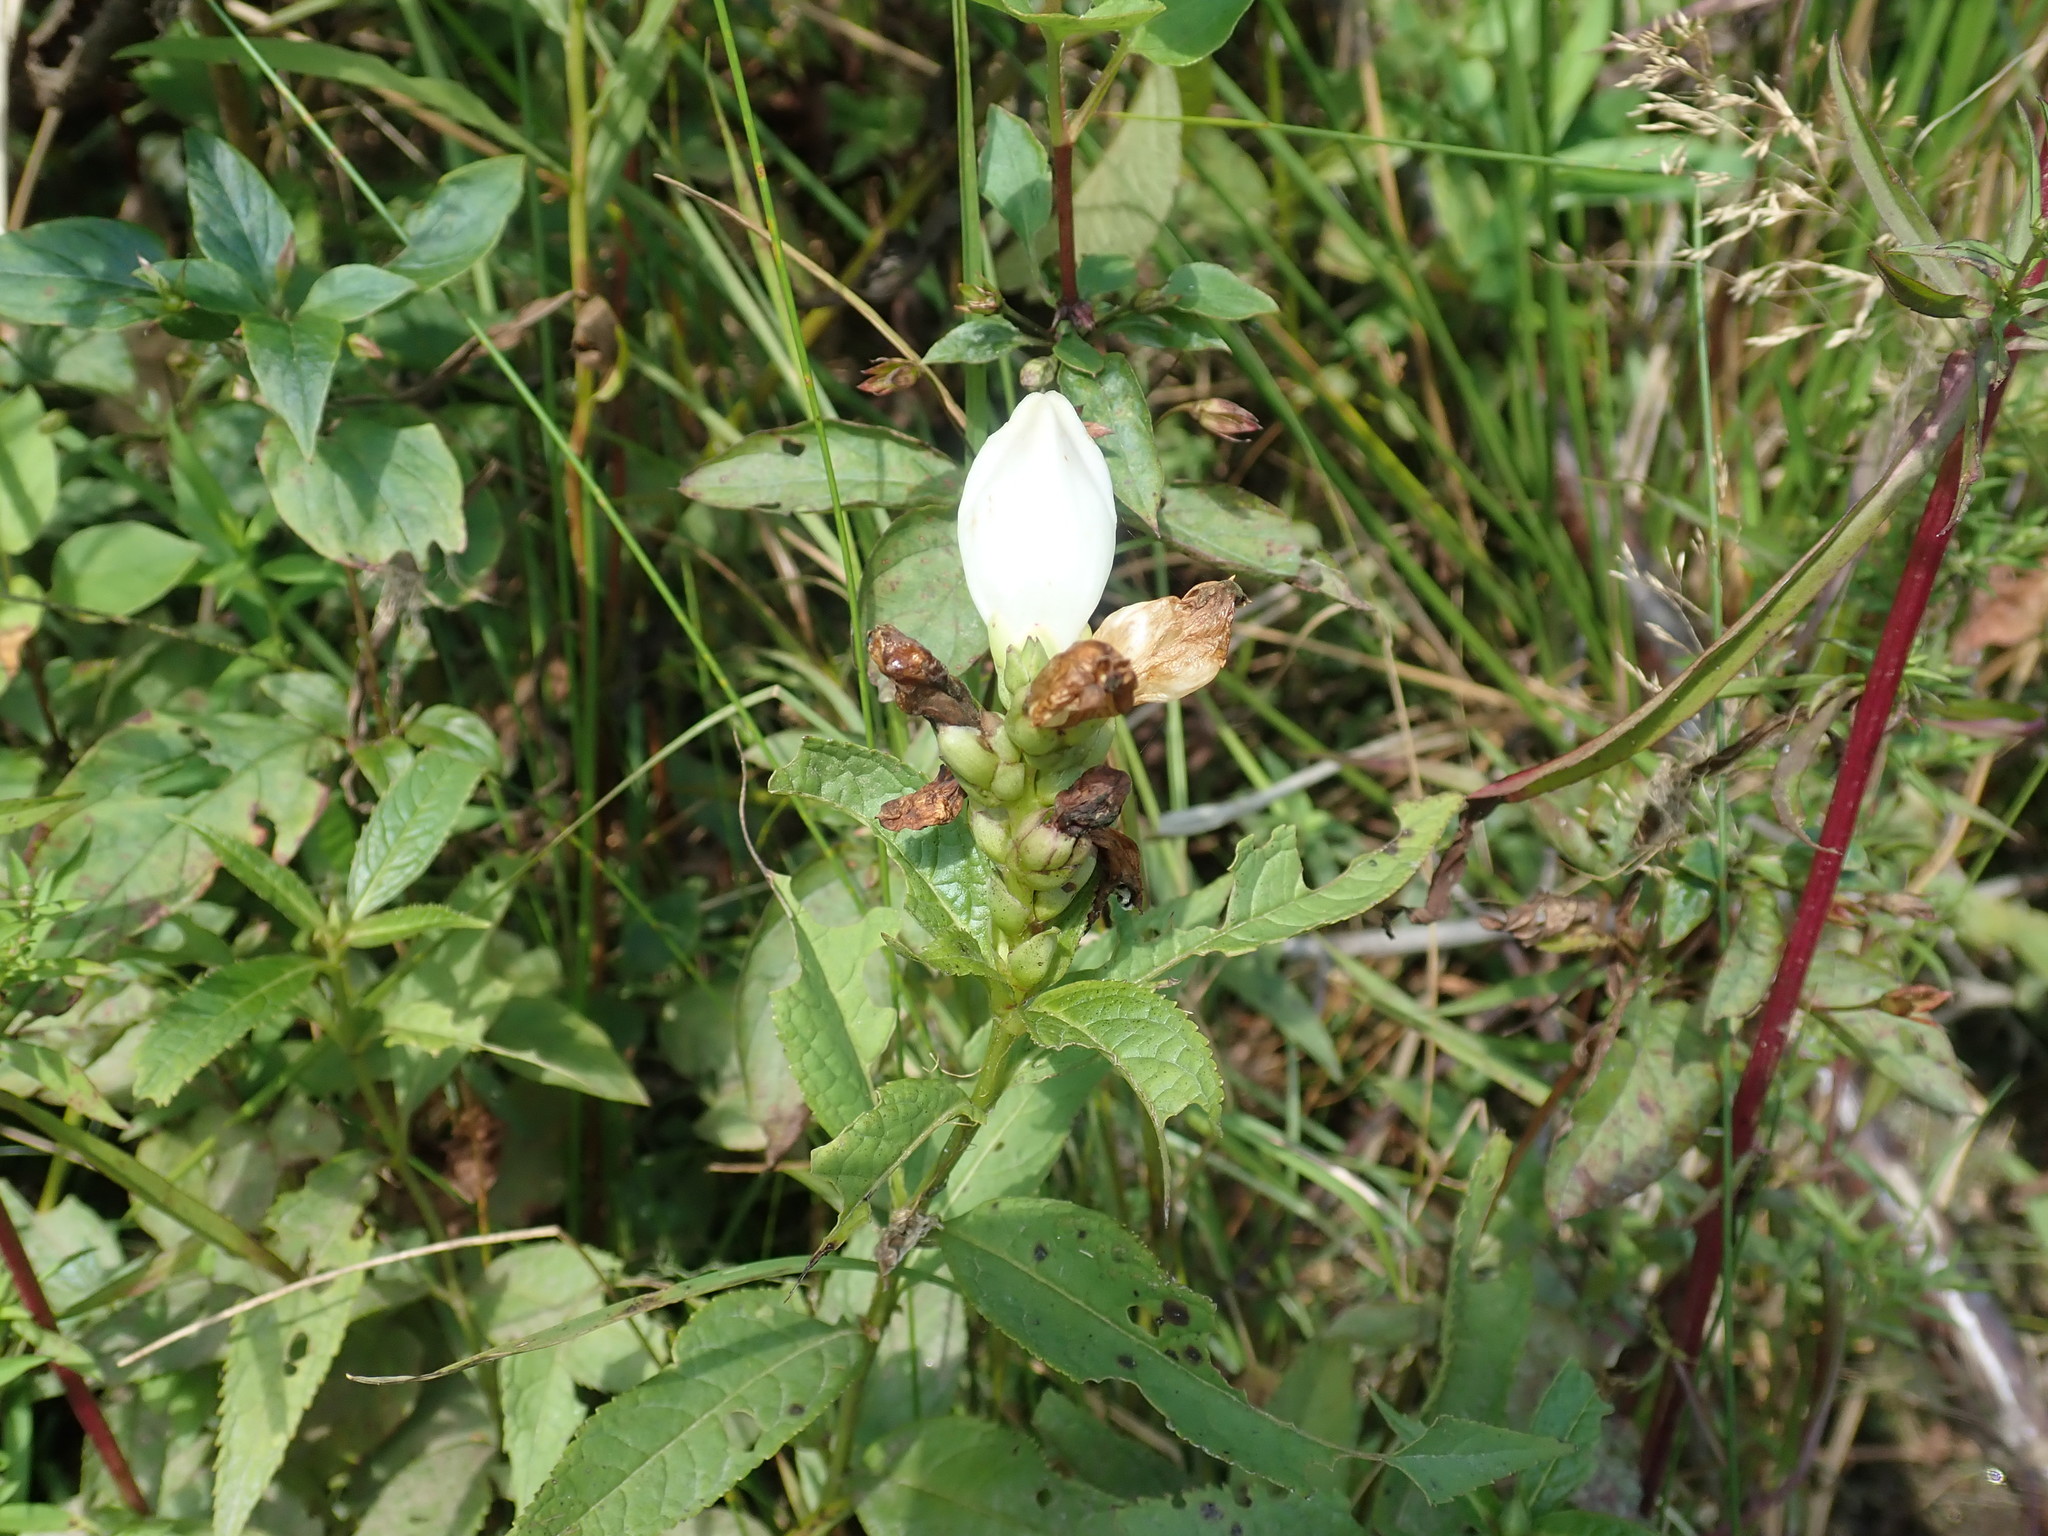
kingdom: Plantae
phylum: Tracheophyta
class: Magnoliopsida
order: Lamiales
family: Plantaginaceae
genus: Chelone
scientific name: Chelone glabra
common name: Snakehead
